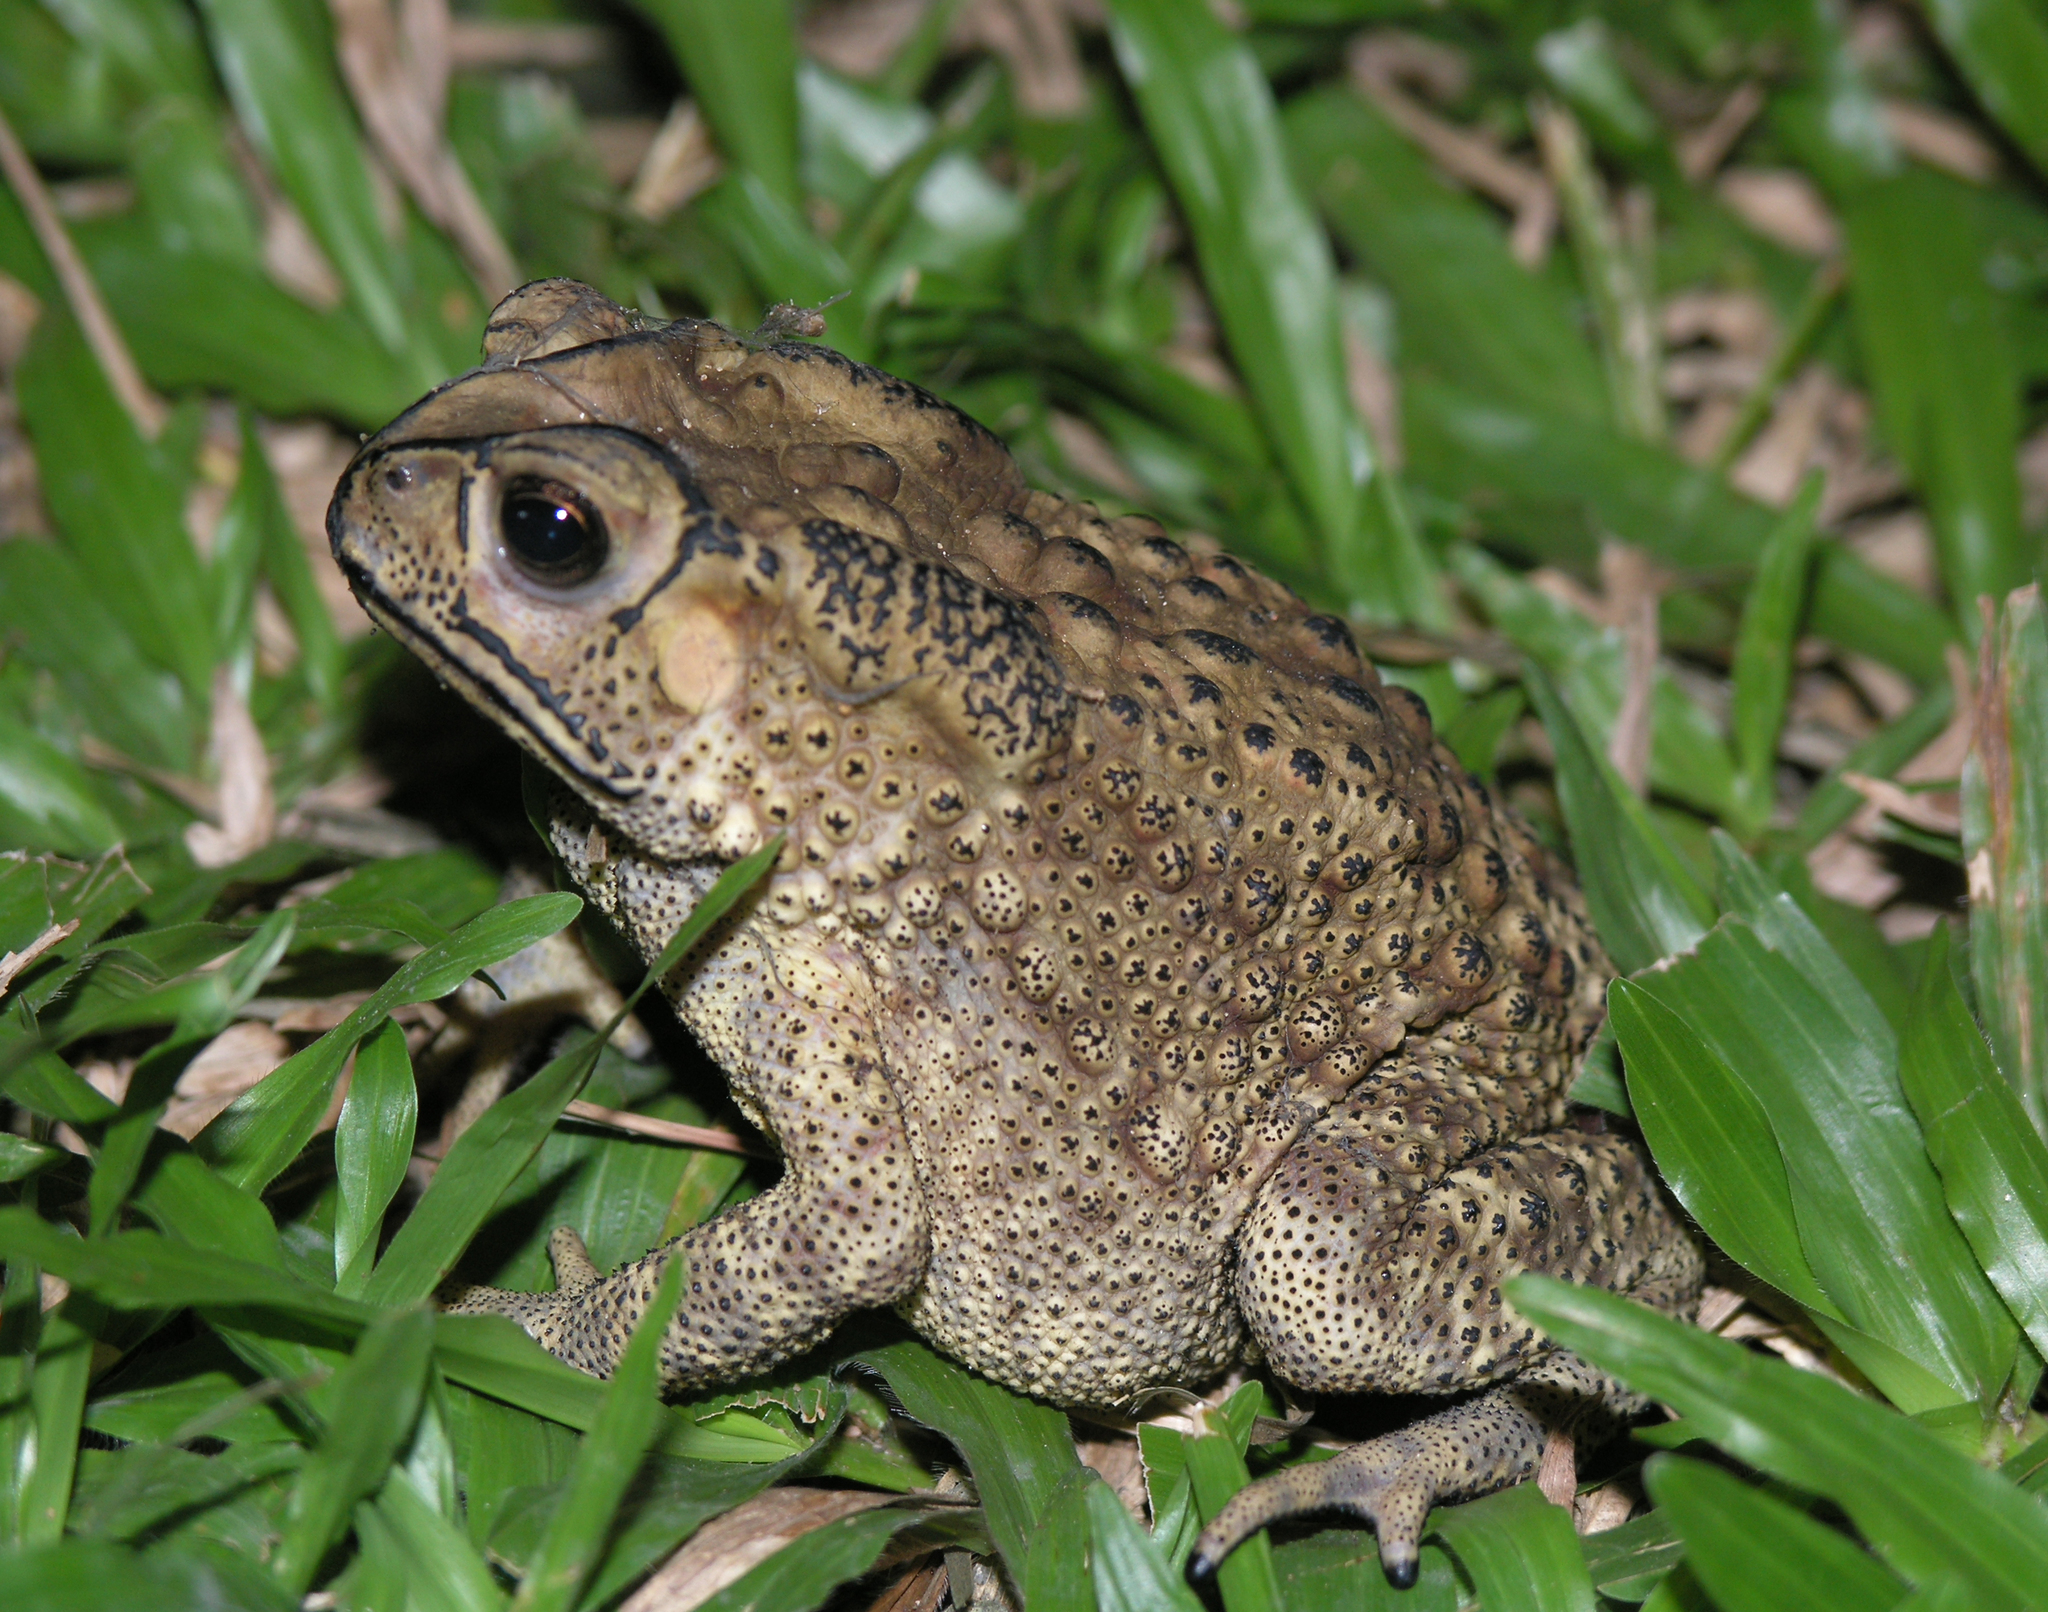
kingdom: Animalia
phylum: Chordata
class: Amphibia
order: Anura
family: Bufonidae
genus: Duttaphrynus
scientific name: Duttaphrynus melanostictus
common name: Common sunda toad
